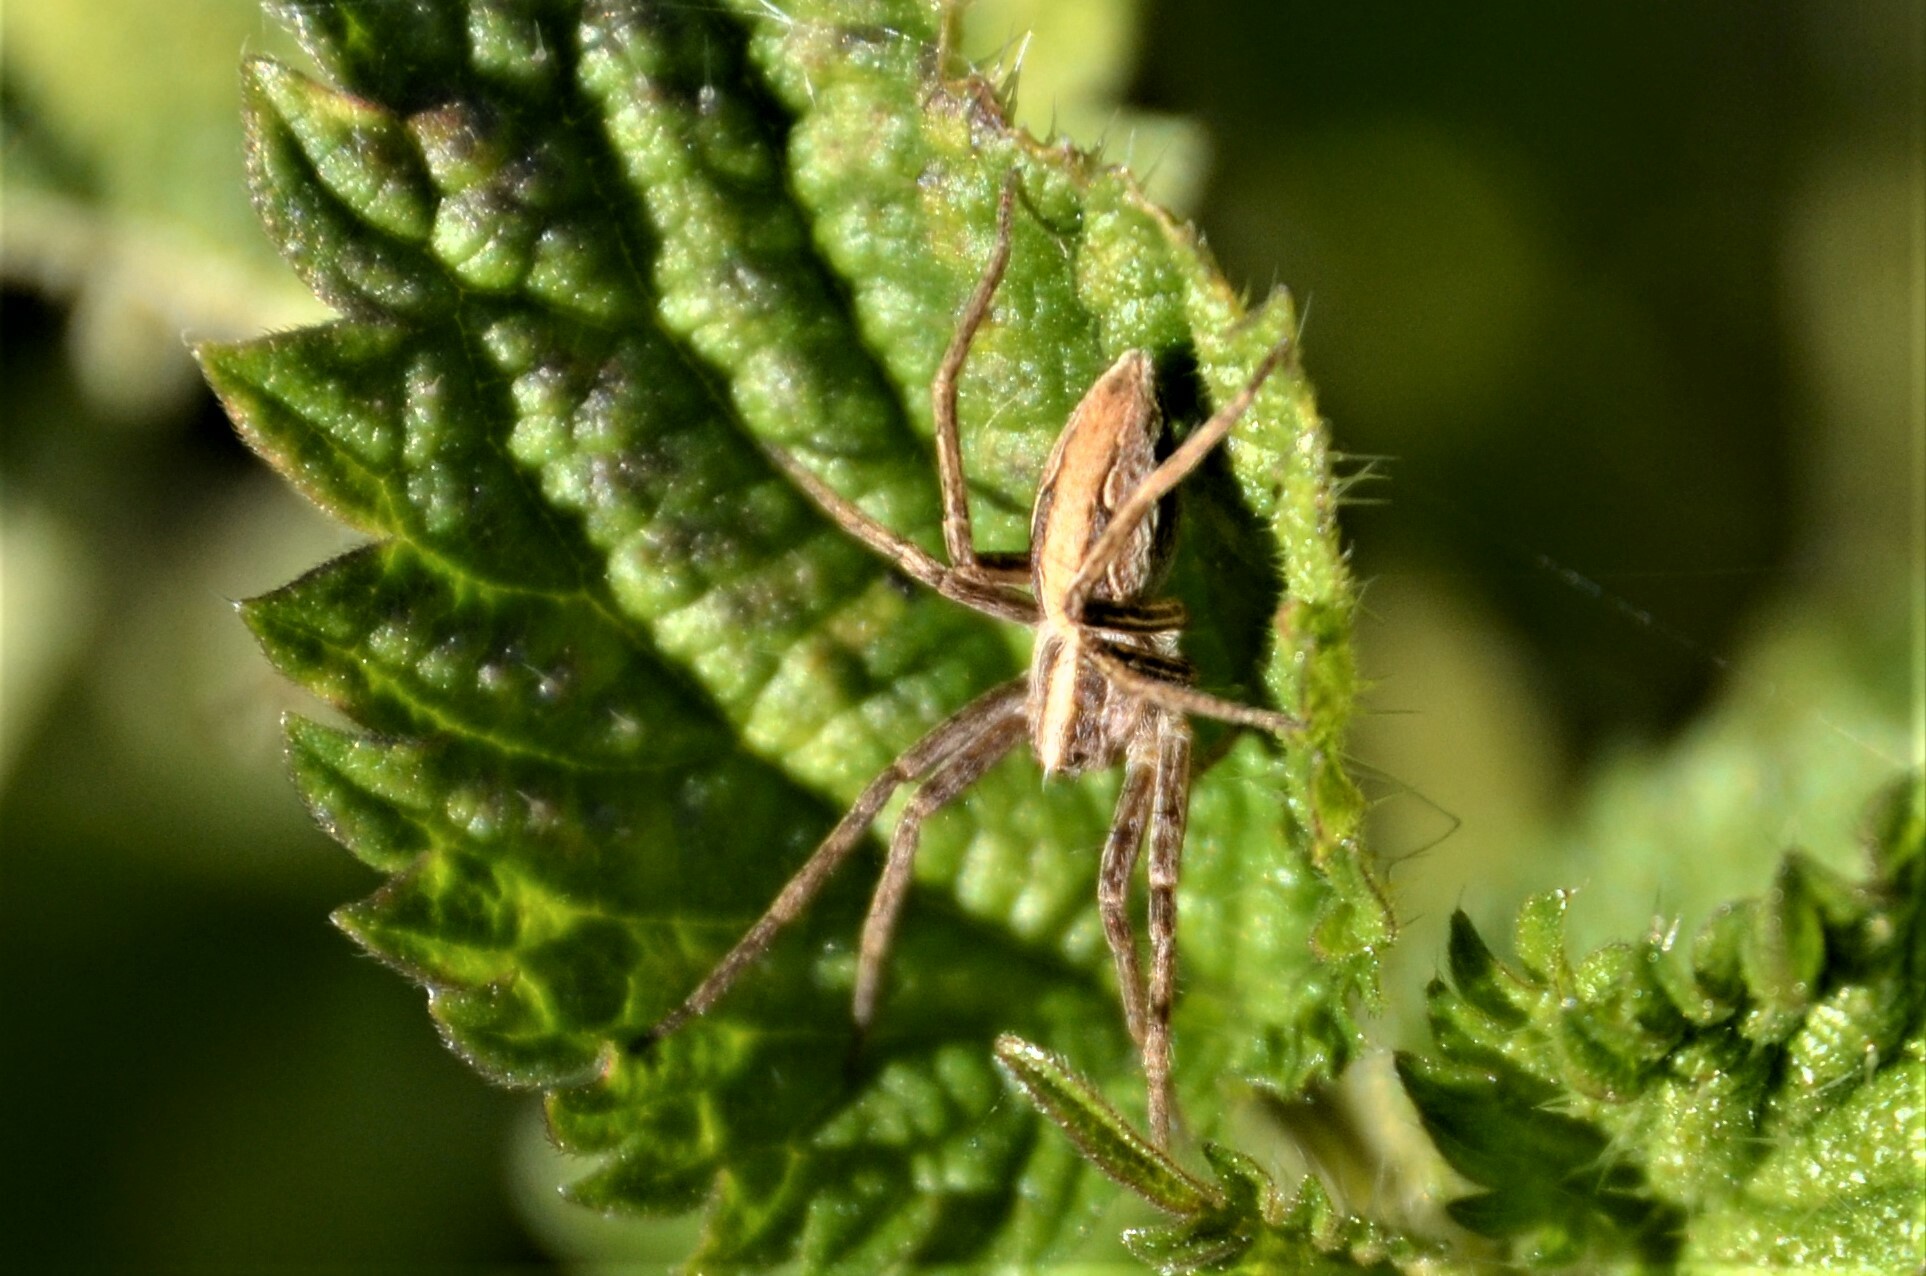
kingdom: Animalia
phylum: Arthropoda
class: Arachnida
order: Araneae
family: Pisauridae
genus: Pisaura
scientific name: Pisaura mirabilis
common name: Tent spider
